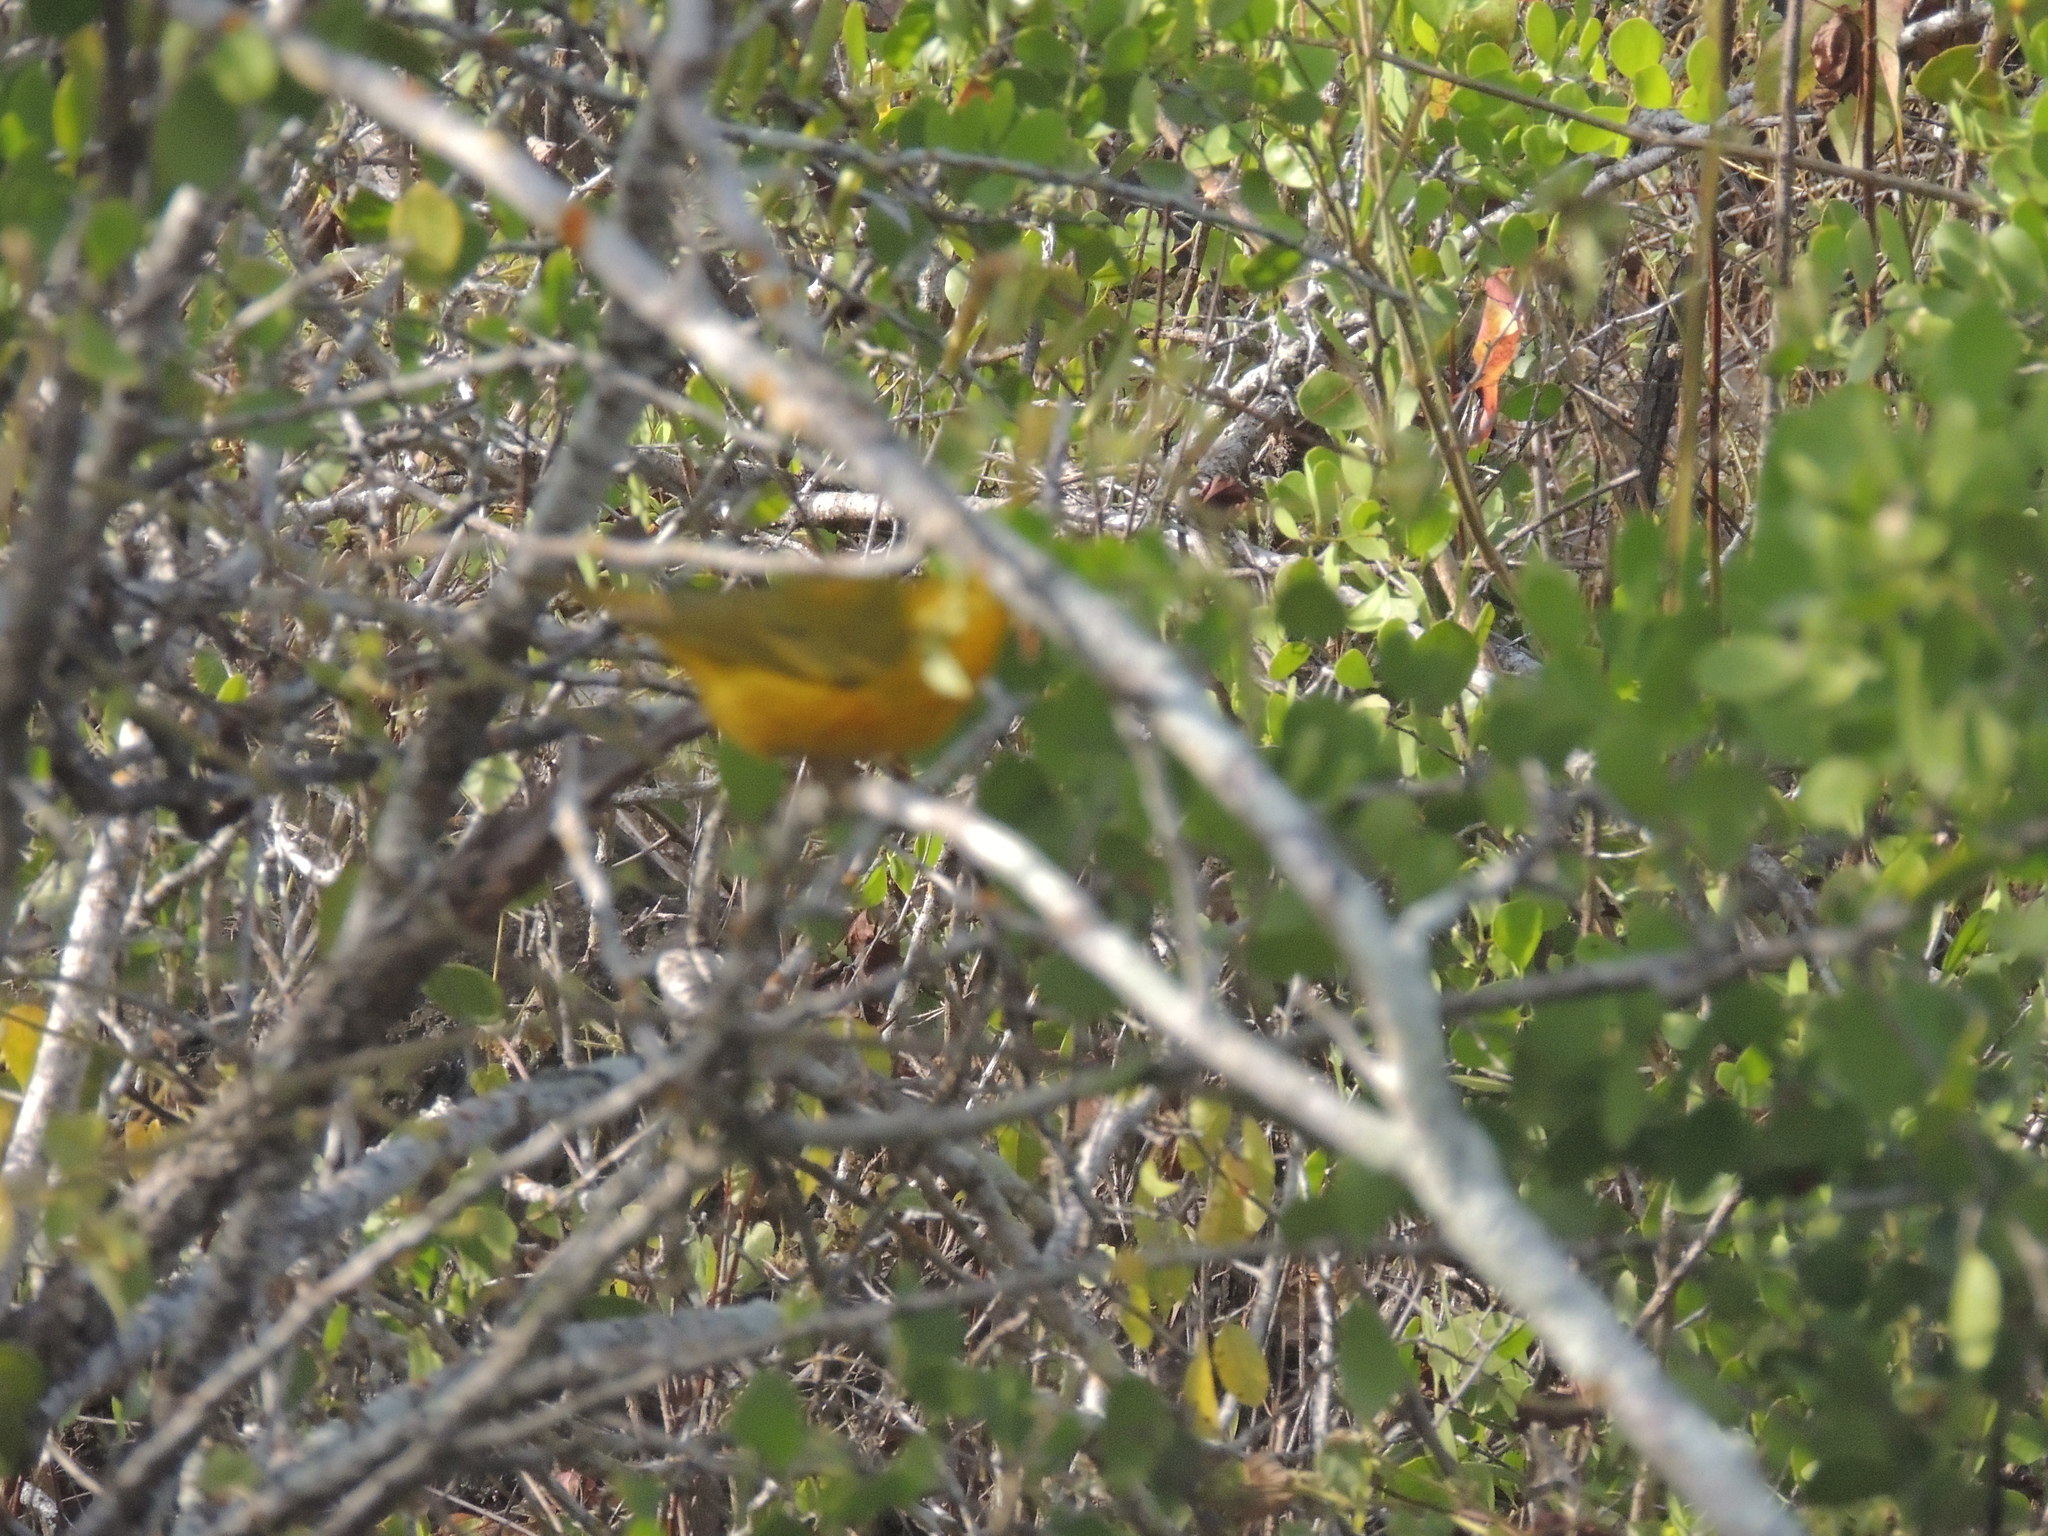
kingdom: Animalia
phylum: Chordata
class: Aves
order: Passeriformes
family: Parulidae
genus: Setophaga
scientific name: Setophaga petechia
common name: Yellow warbler
